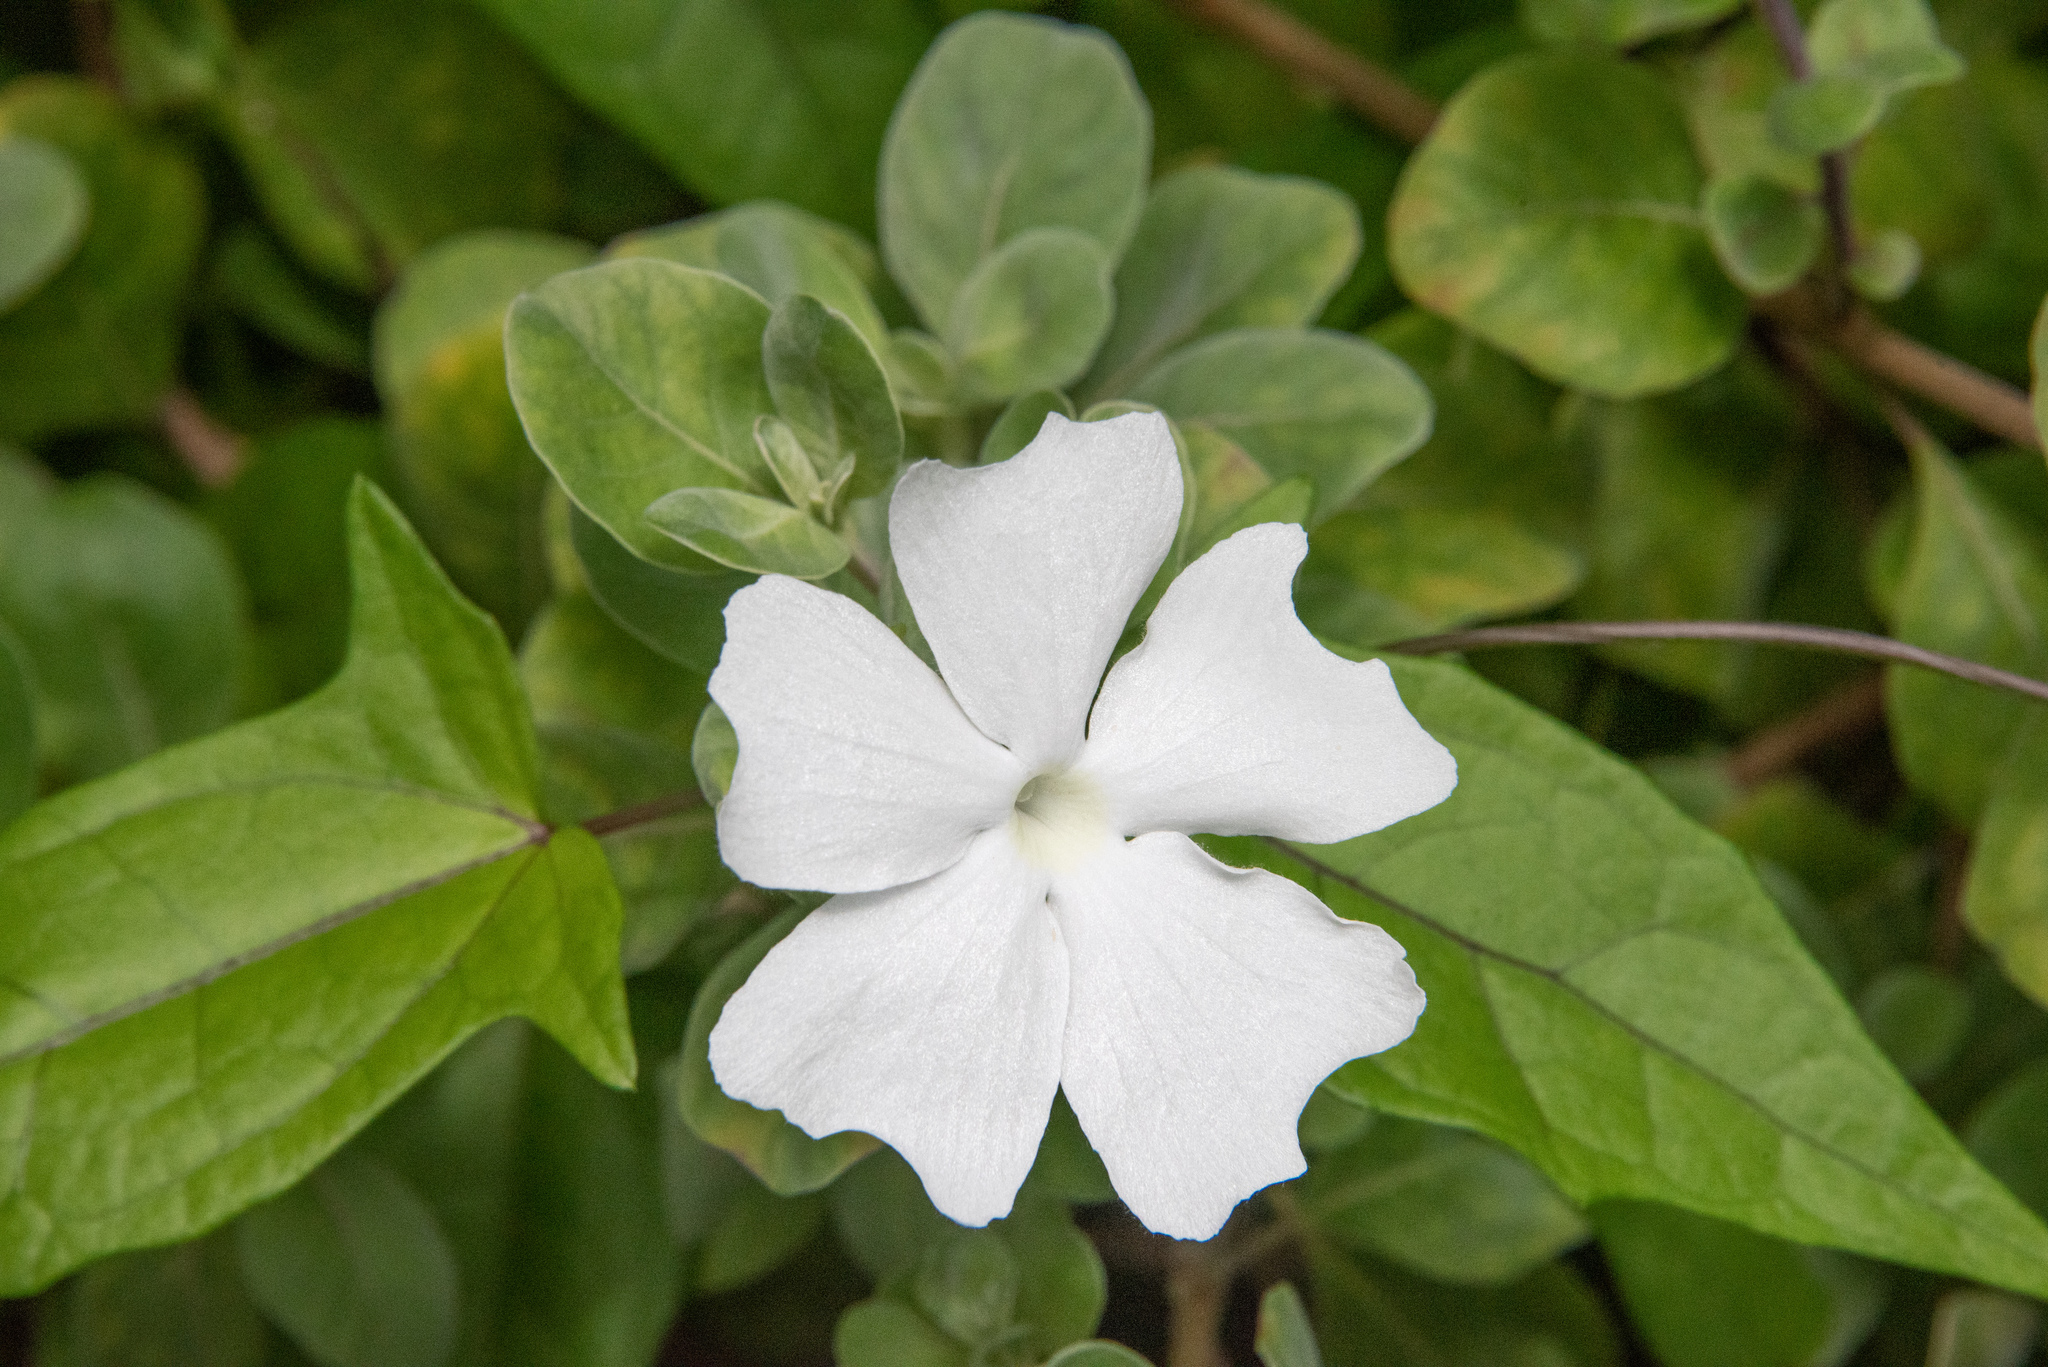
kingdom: Plantae
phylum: Tracheophyta
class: Magnoliopsida
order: Lamiales
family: Acanthaceae
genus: Thunbergia
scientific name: Thunbergia fragrans
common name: Whitelady
